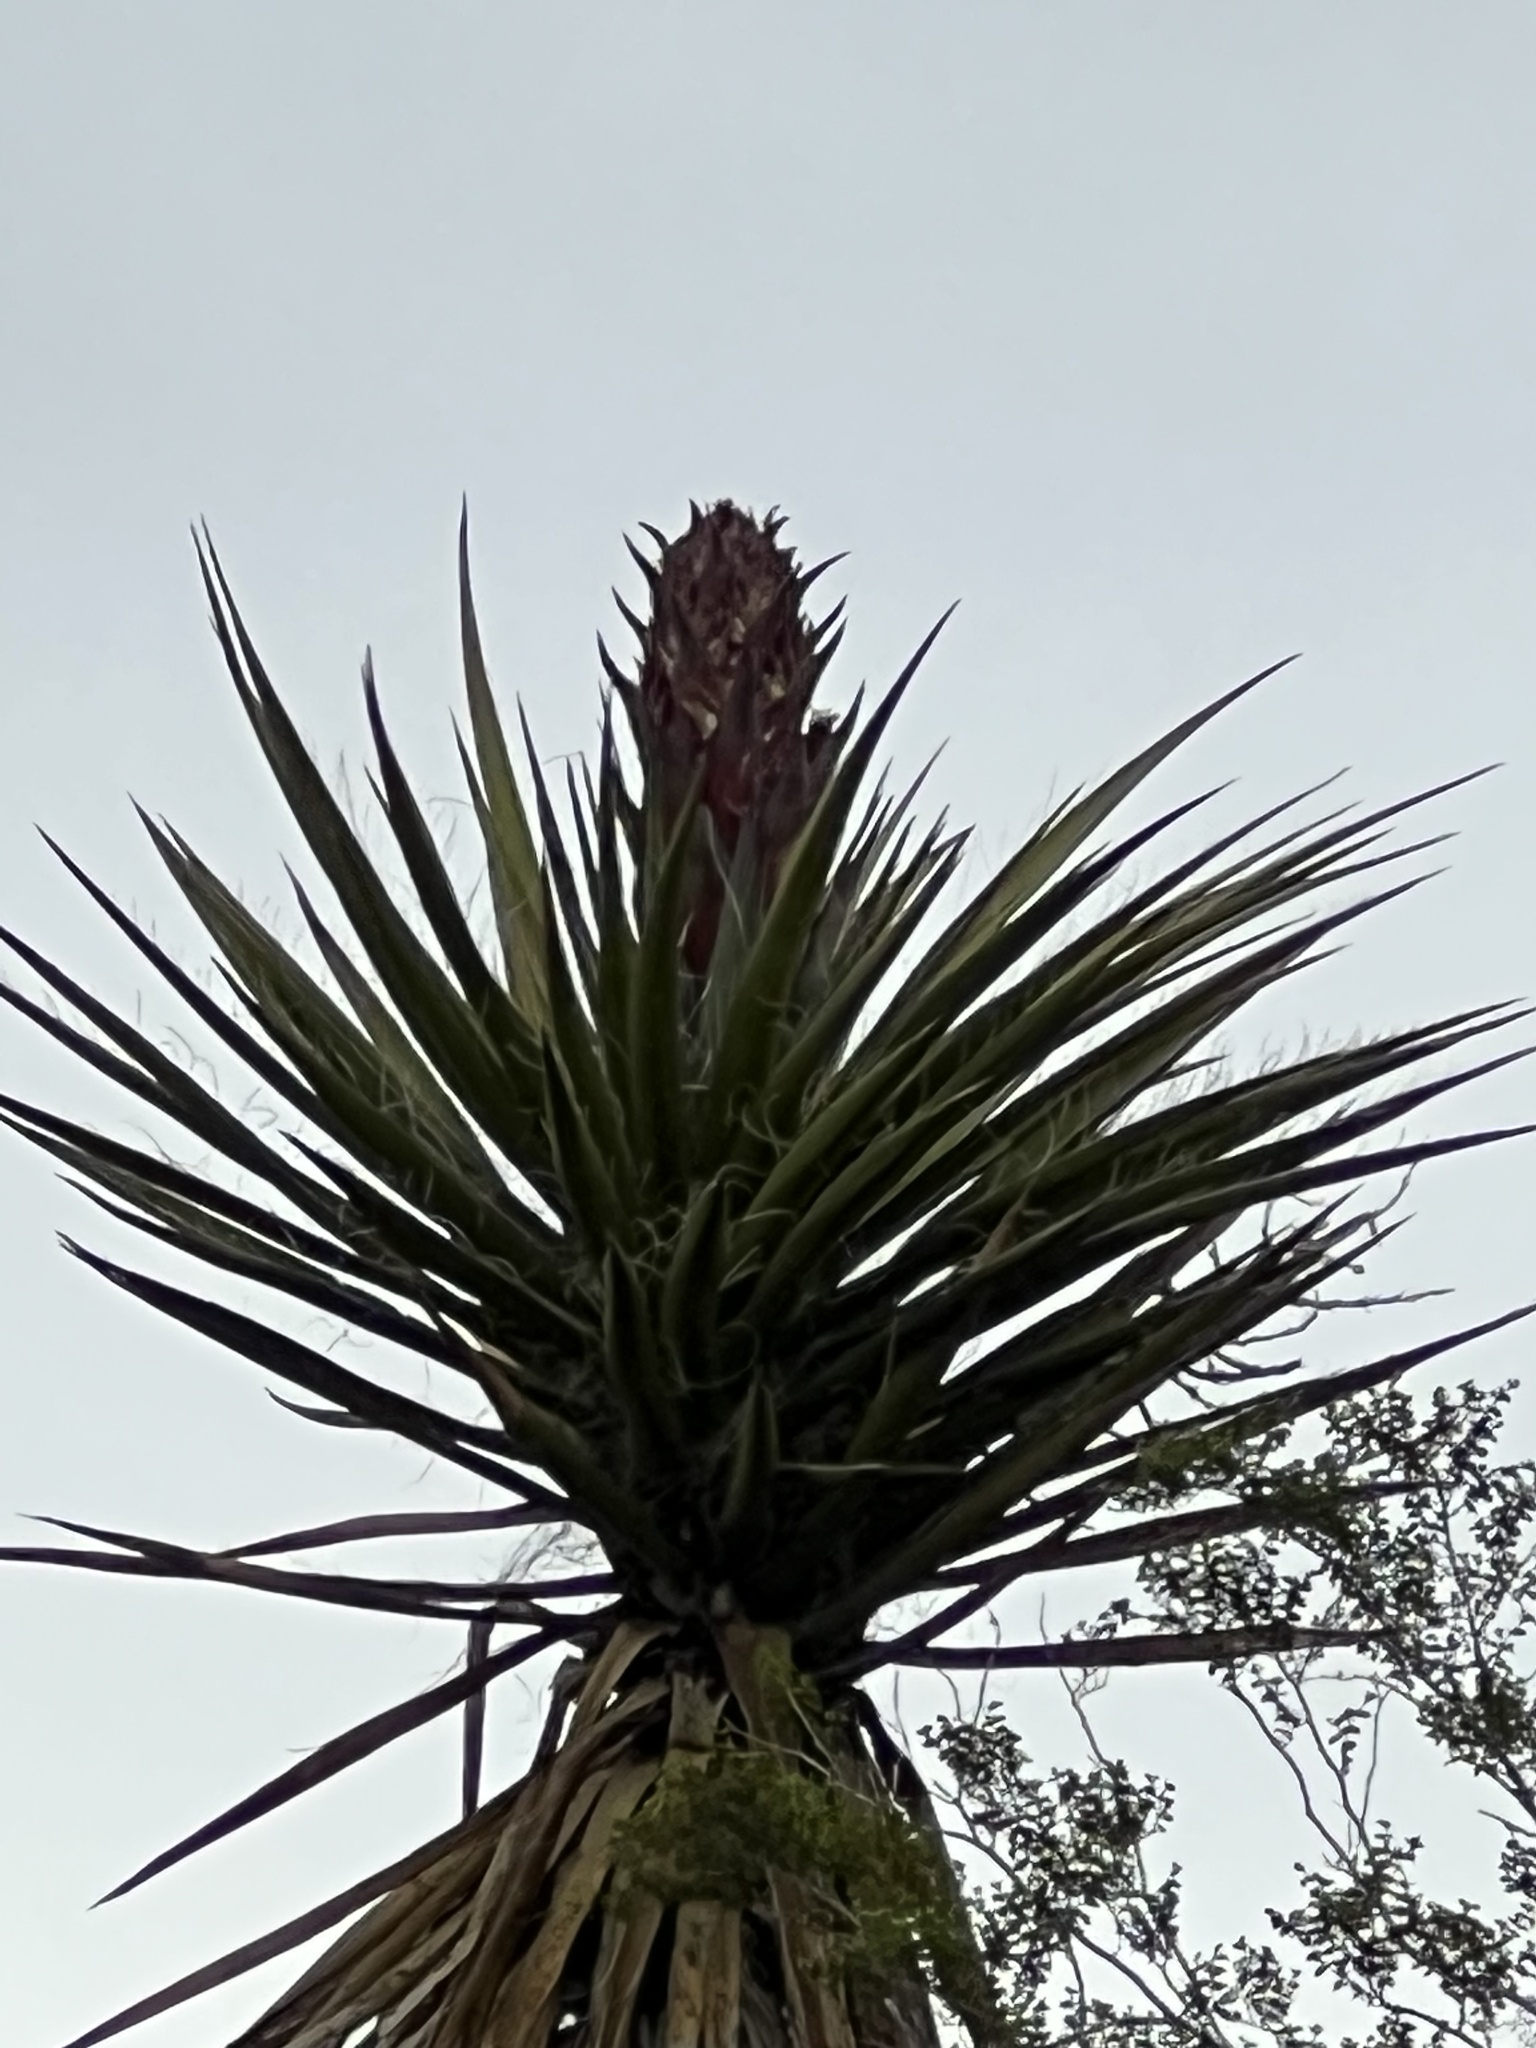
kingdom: Plantae
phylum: Tracheophyta
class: Liliopsida
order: Asparagales
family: Asparagaceae
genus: Yucca
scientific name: Yucca schidigera
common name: Mojave yucca
